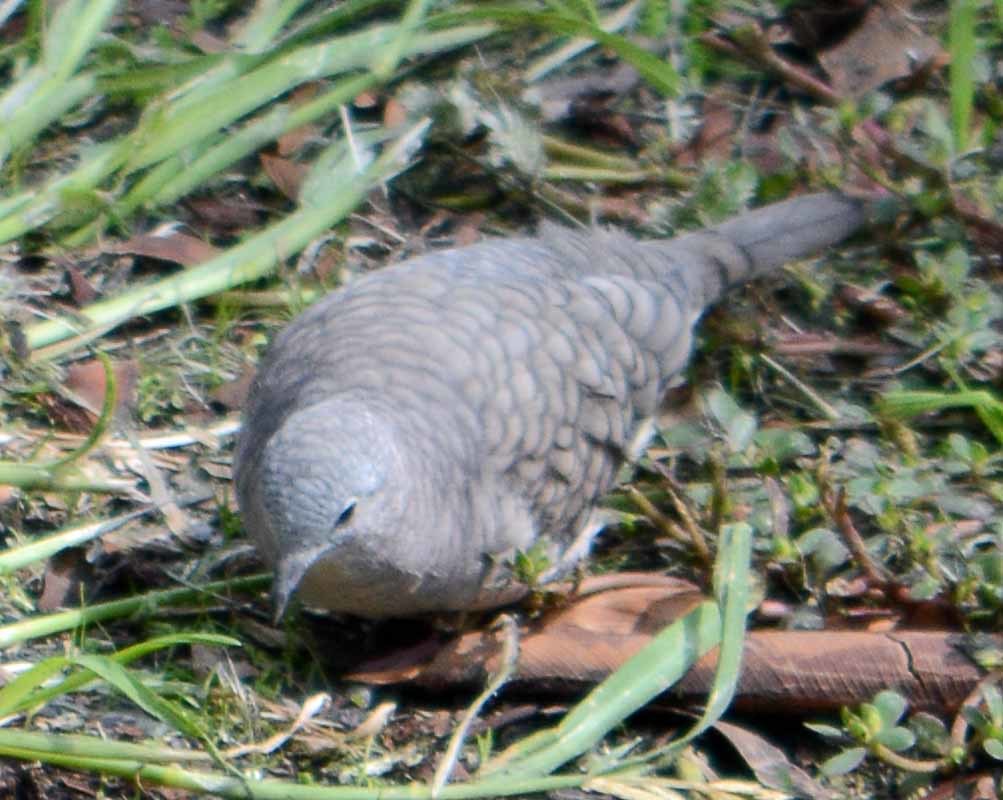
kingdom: Animalia
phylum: Chordata
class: Aves
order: Columbiformes
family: Columbidae
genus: Columbina
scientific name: Columbina inca
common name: Inca dove
